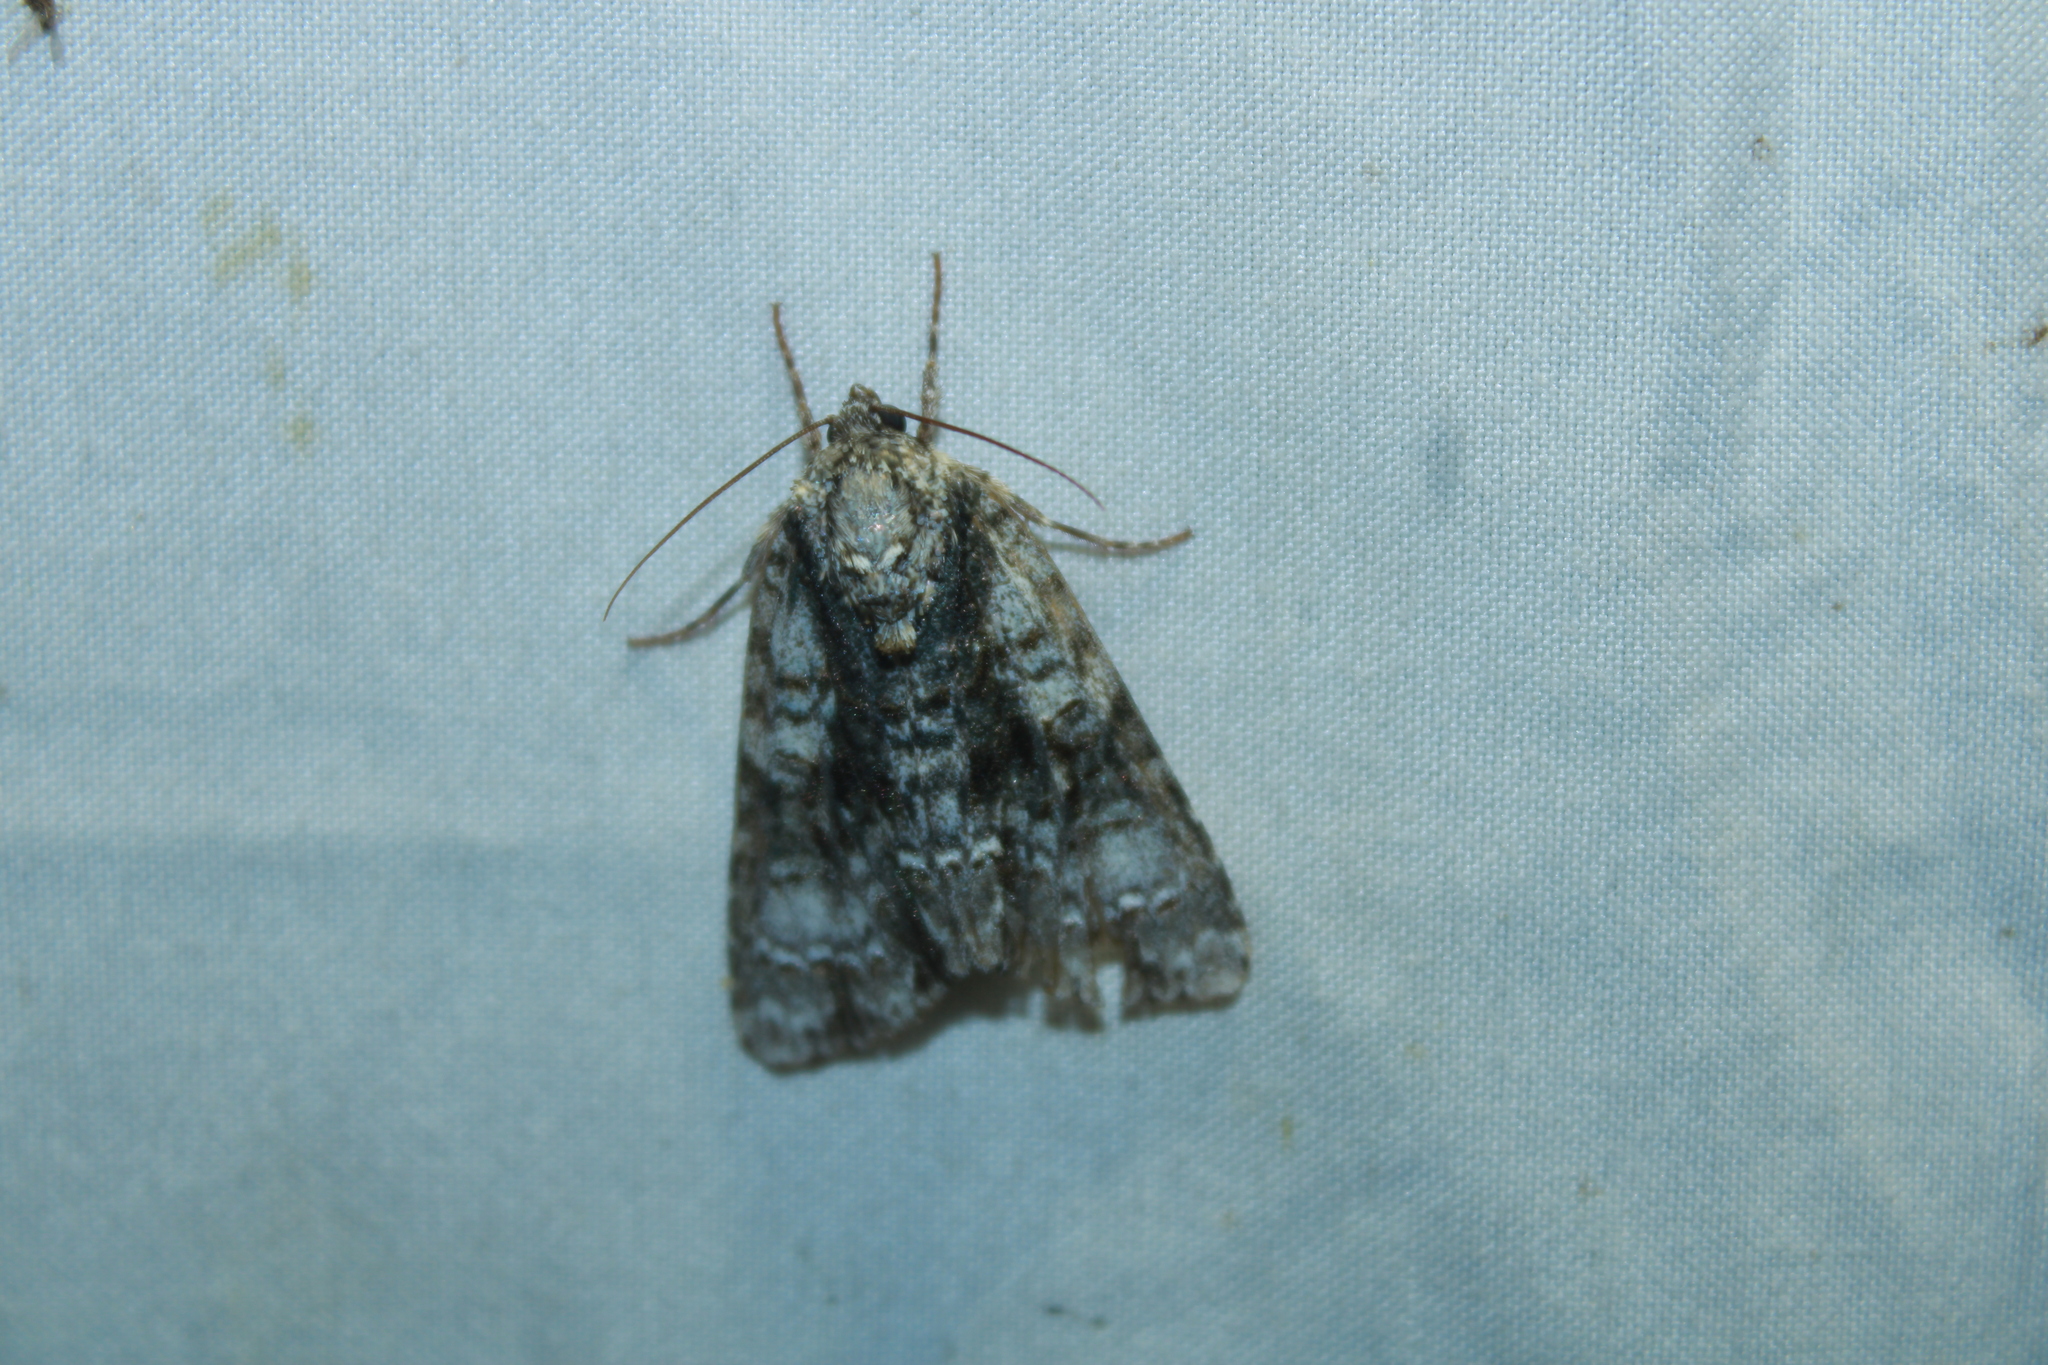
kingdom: Animalia
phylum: Arthropoda
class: Insecta
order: Lepidoptera
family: Noctuidae
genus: Acronicta
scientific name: Acronicta superans
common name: Splendid dagger
